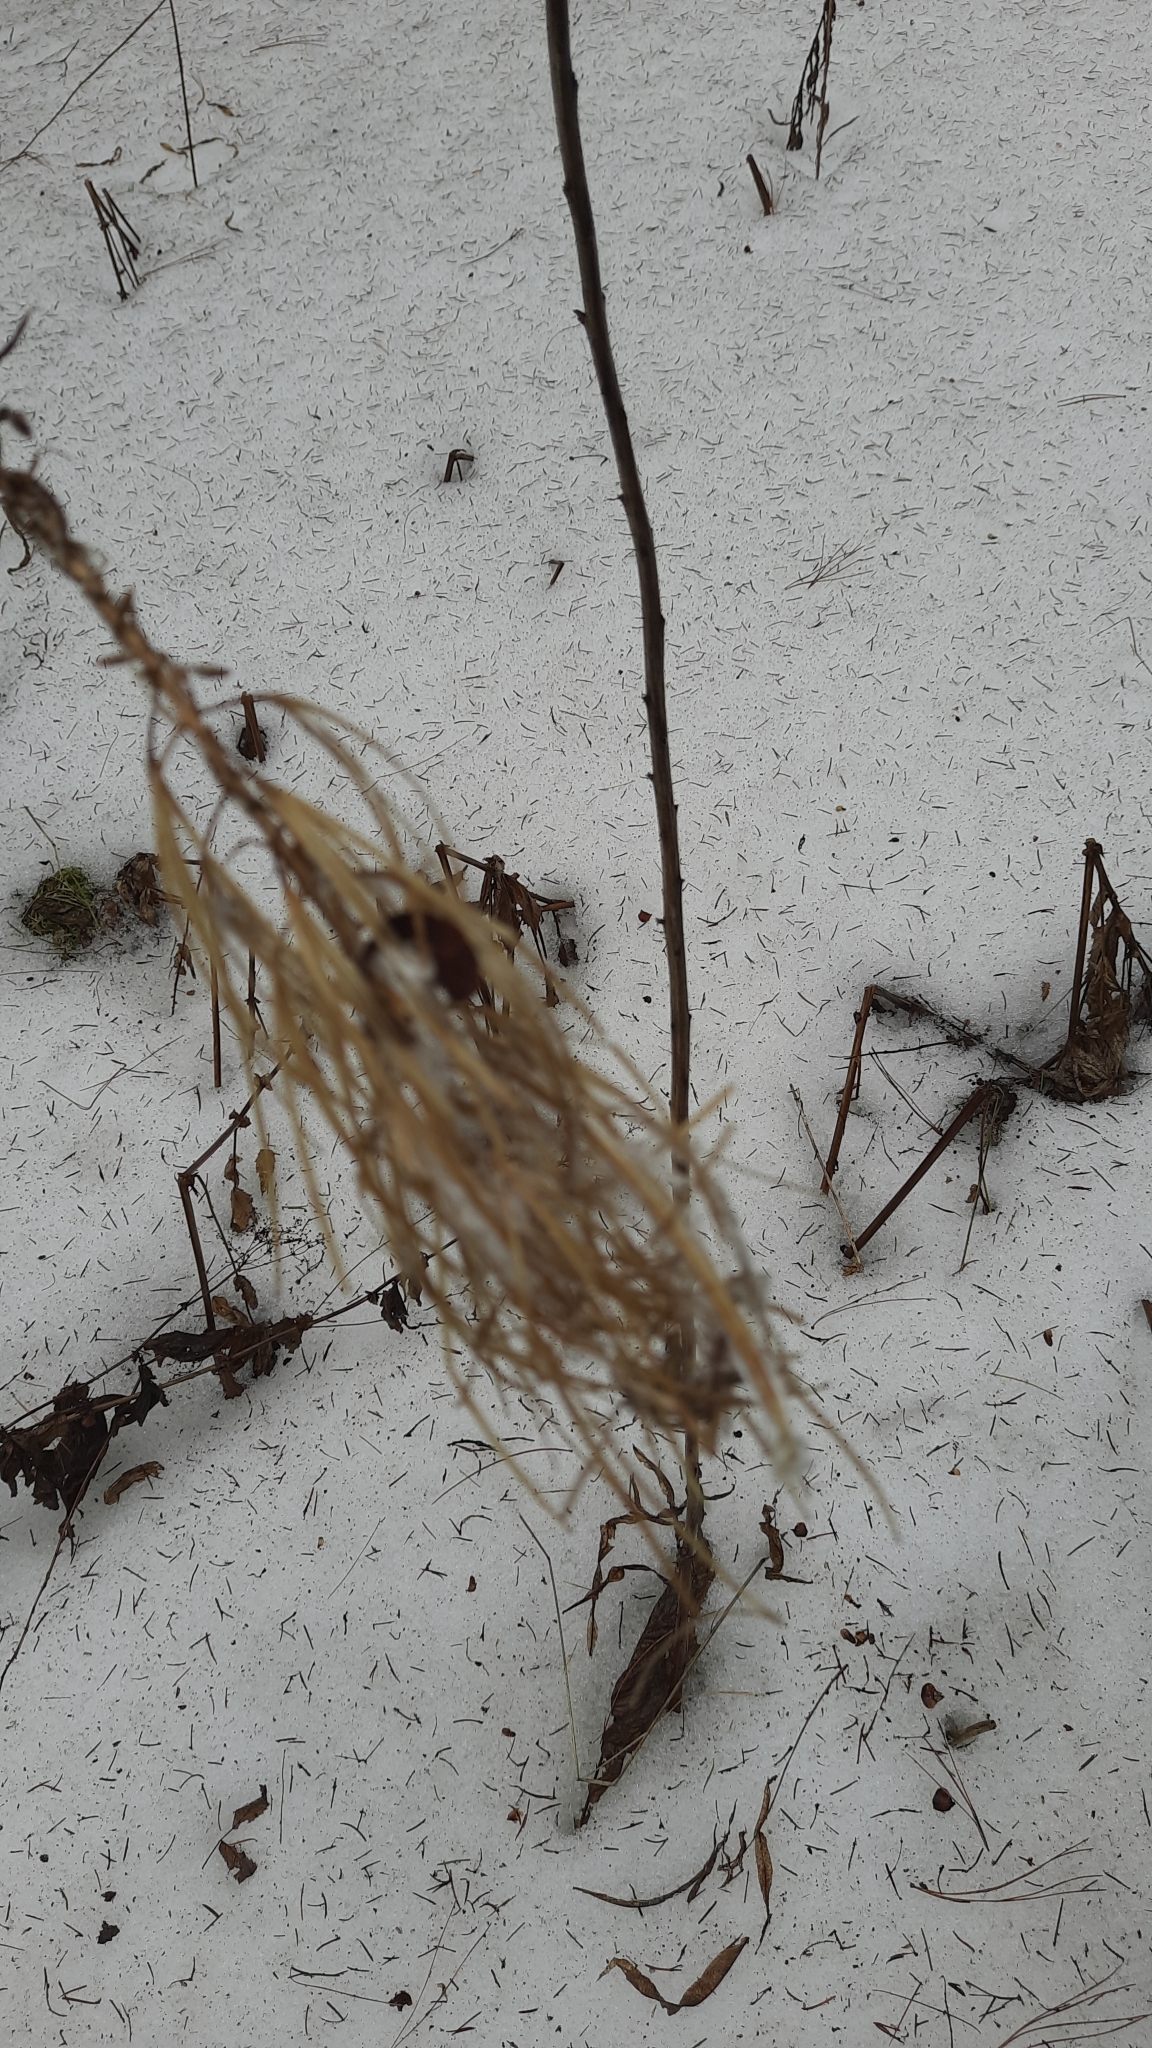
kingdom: Plantae
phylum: Tracheophyta
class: Magnoliopsida
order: Myrtales
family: Onagraceae
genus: Chamaenerion
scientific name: Chamaenerion angustifolium
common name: Fireweed
